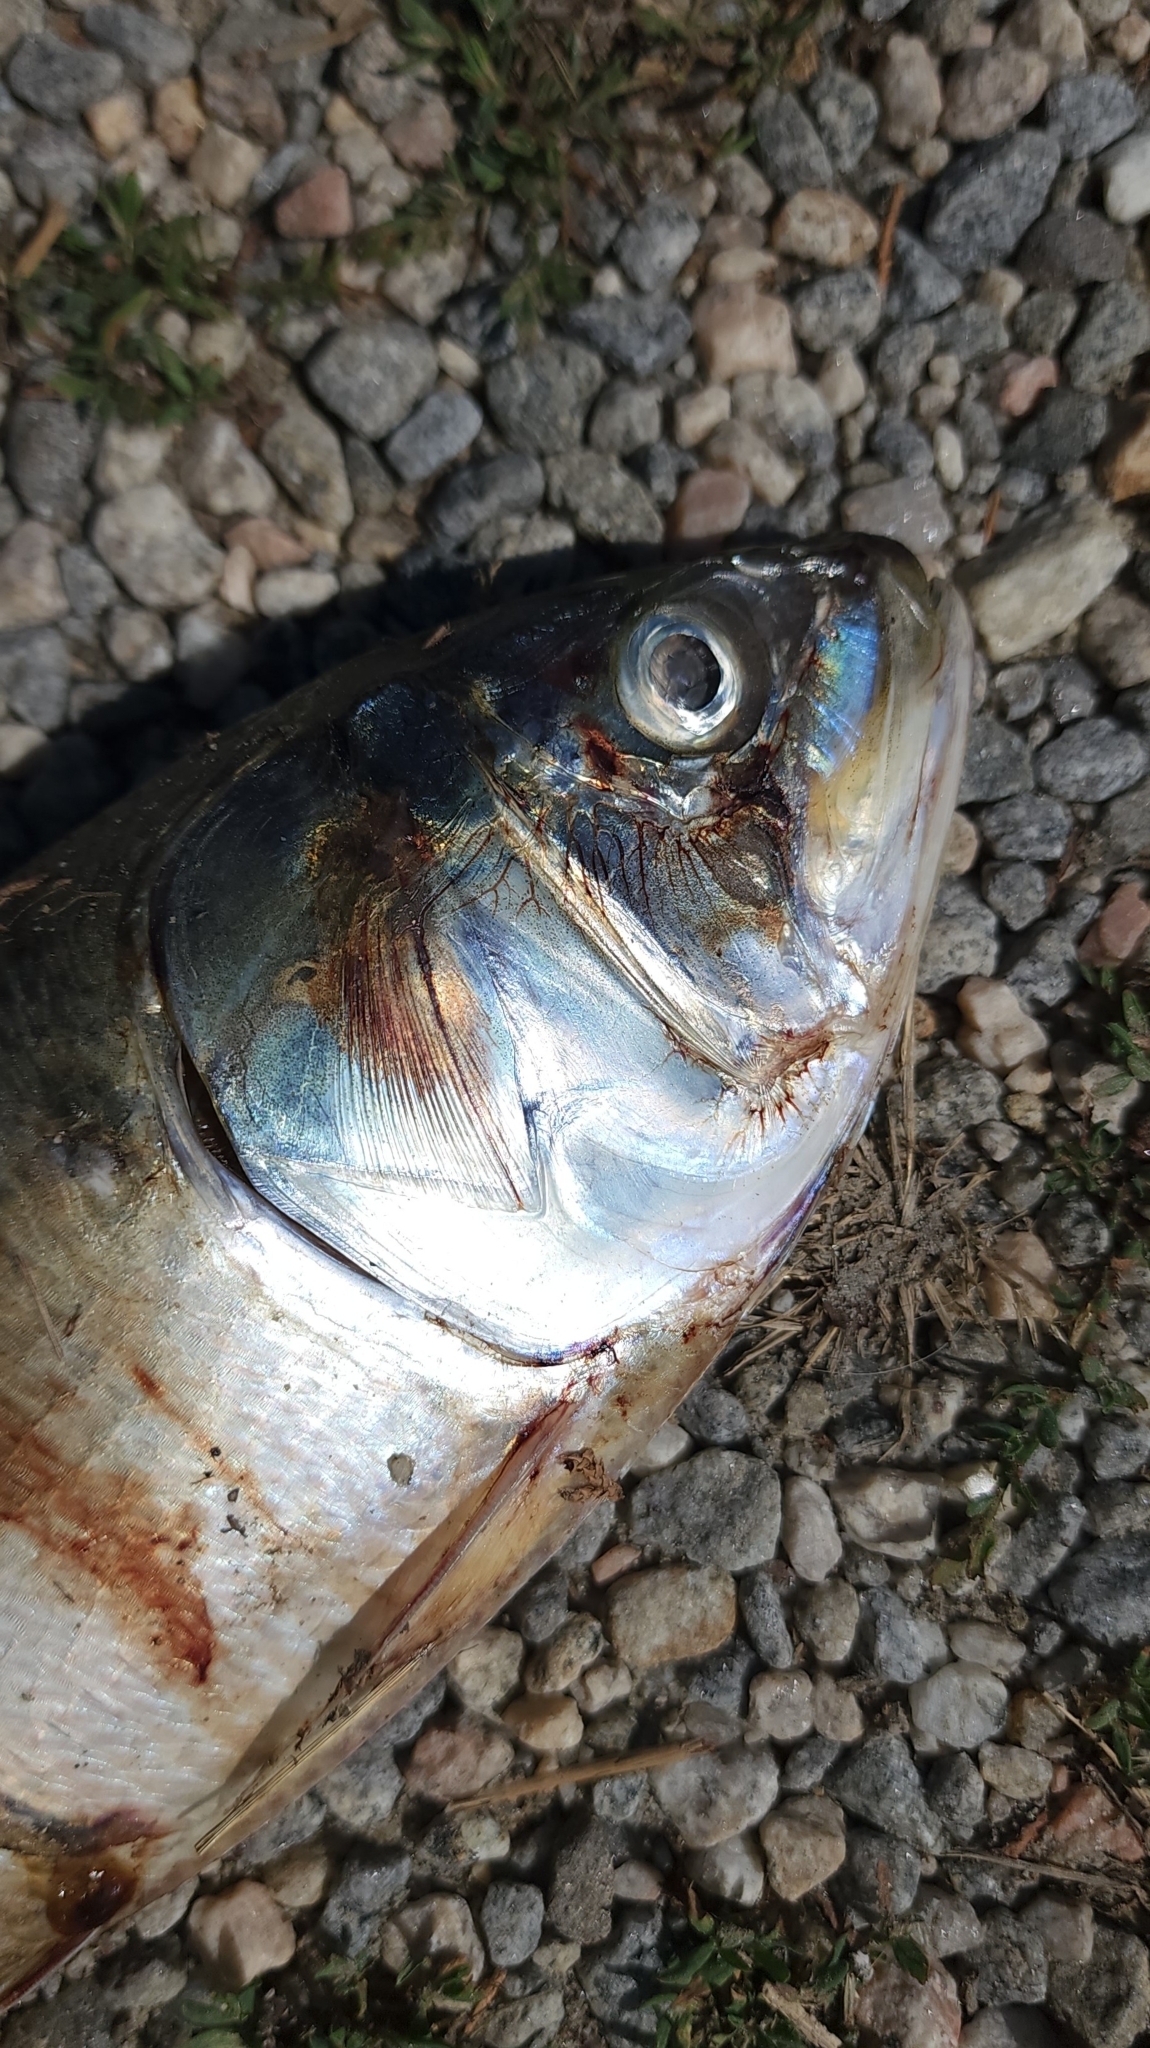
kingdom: Animalia
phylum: Chordata
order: Clupeiformes
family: Clupeidae
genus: Brevoortia
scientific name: Brevoortia tyrannus
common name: Atlantic menhaden
